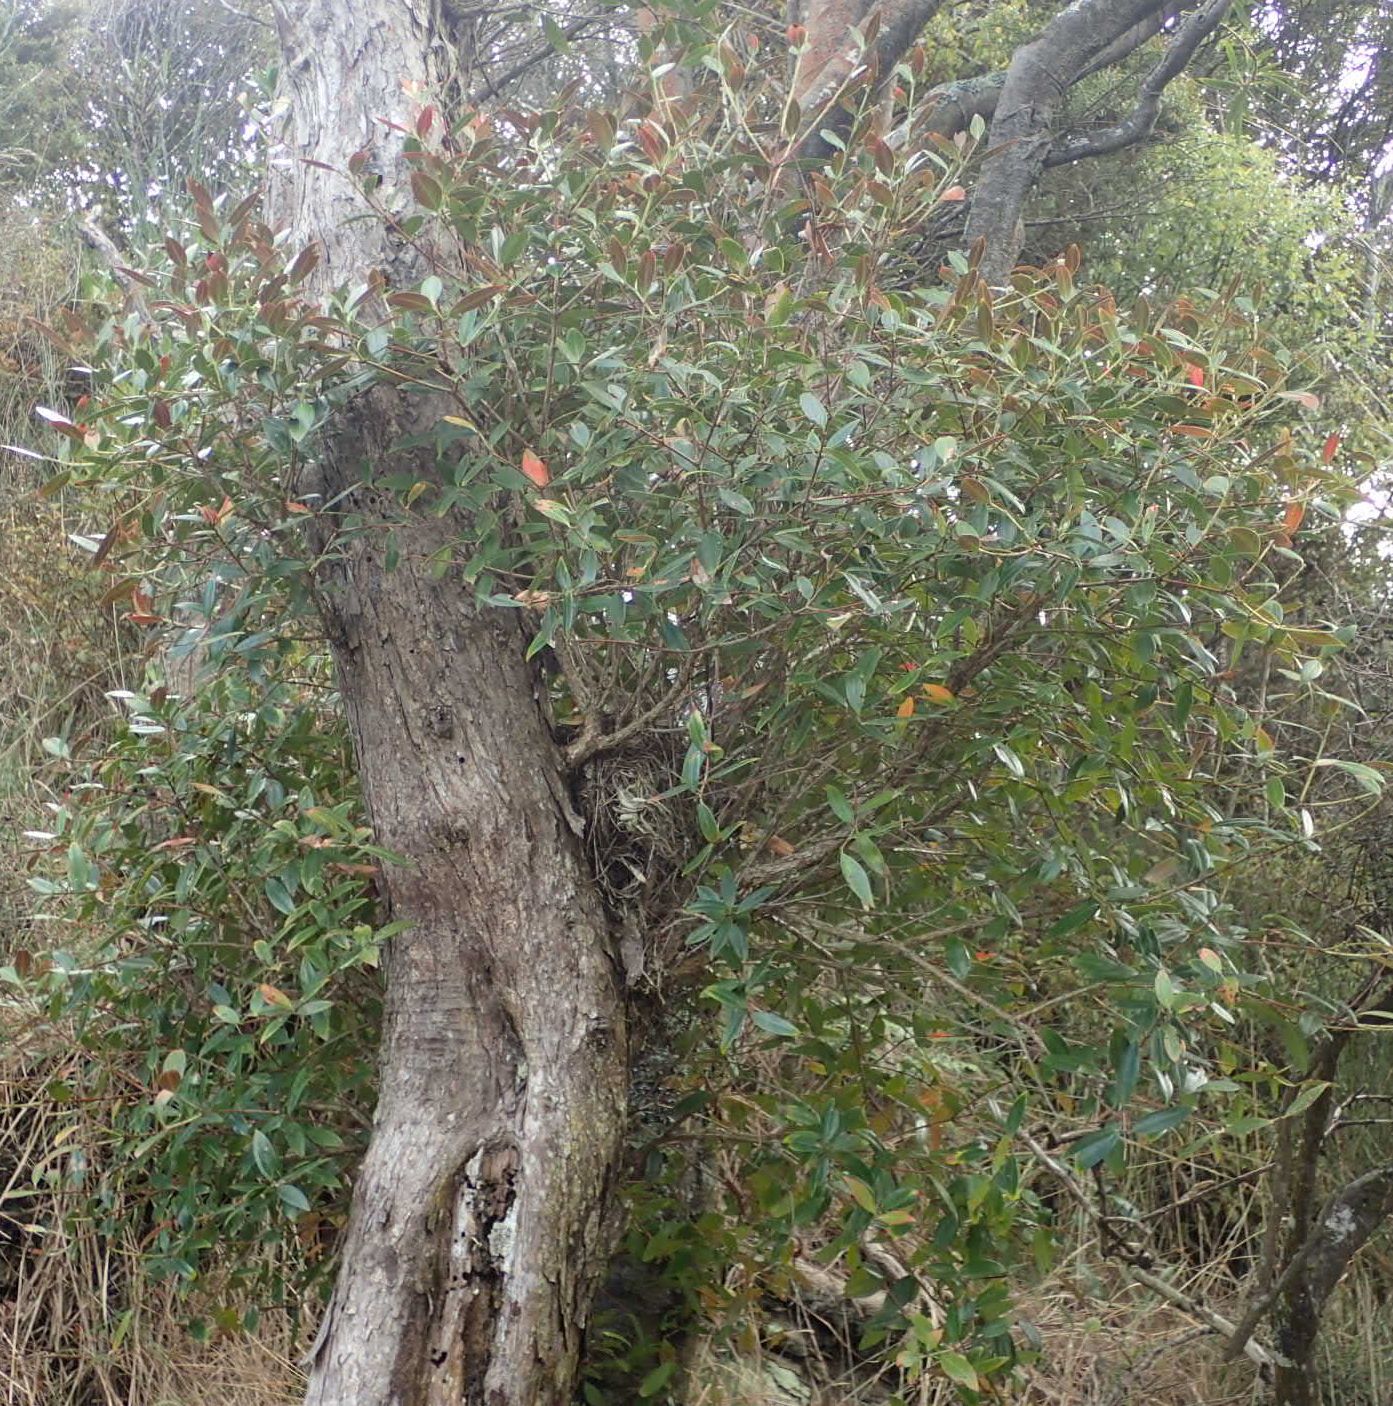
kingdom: Plantae
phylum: Tracheophyta
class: Magnoliopsida
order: Myrtales
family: Myrtaceae
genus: Metrosideros
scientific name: Metrosideros umbellata
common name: Southern rata
